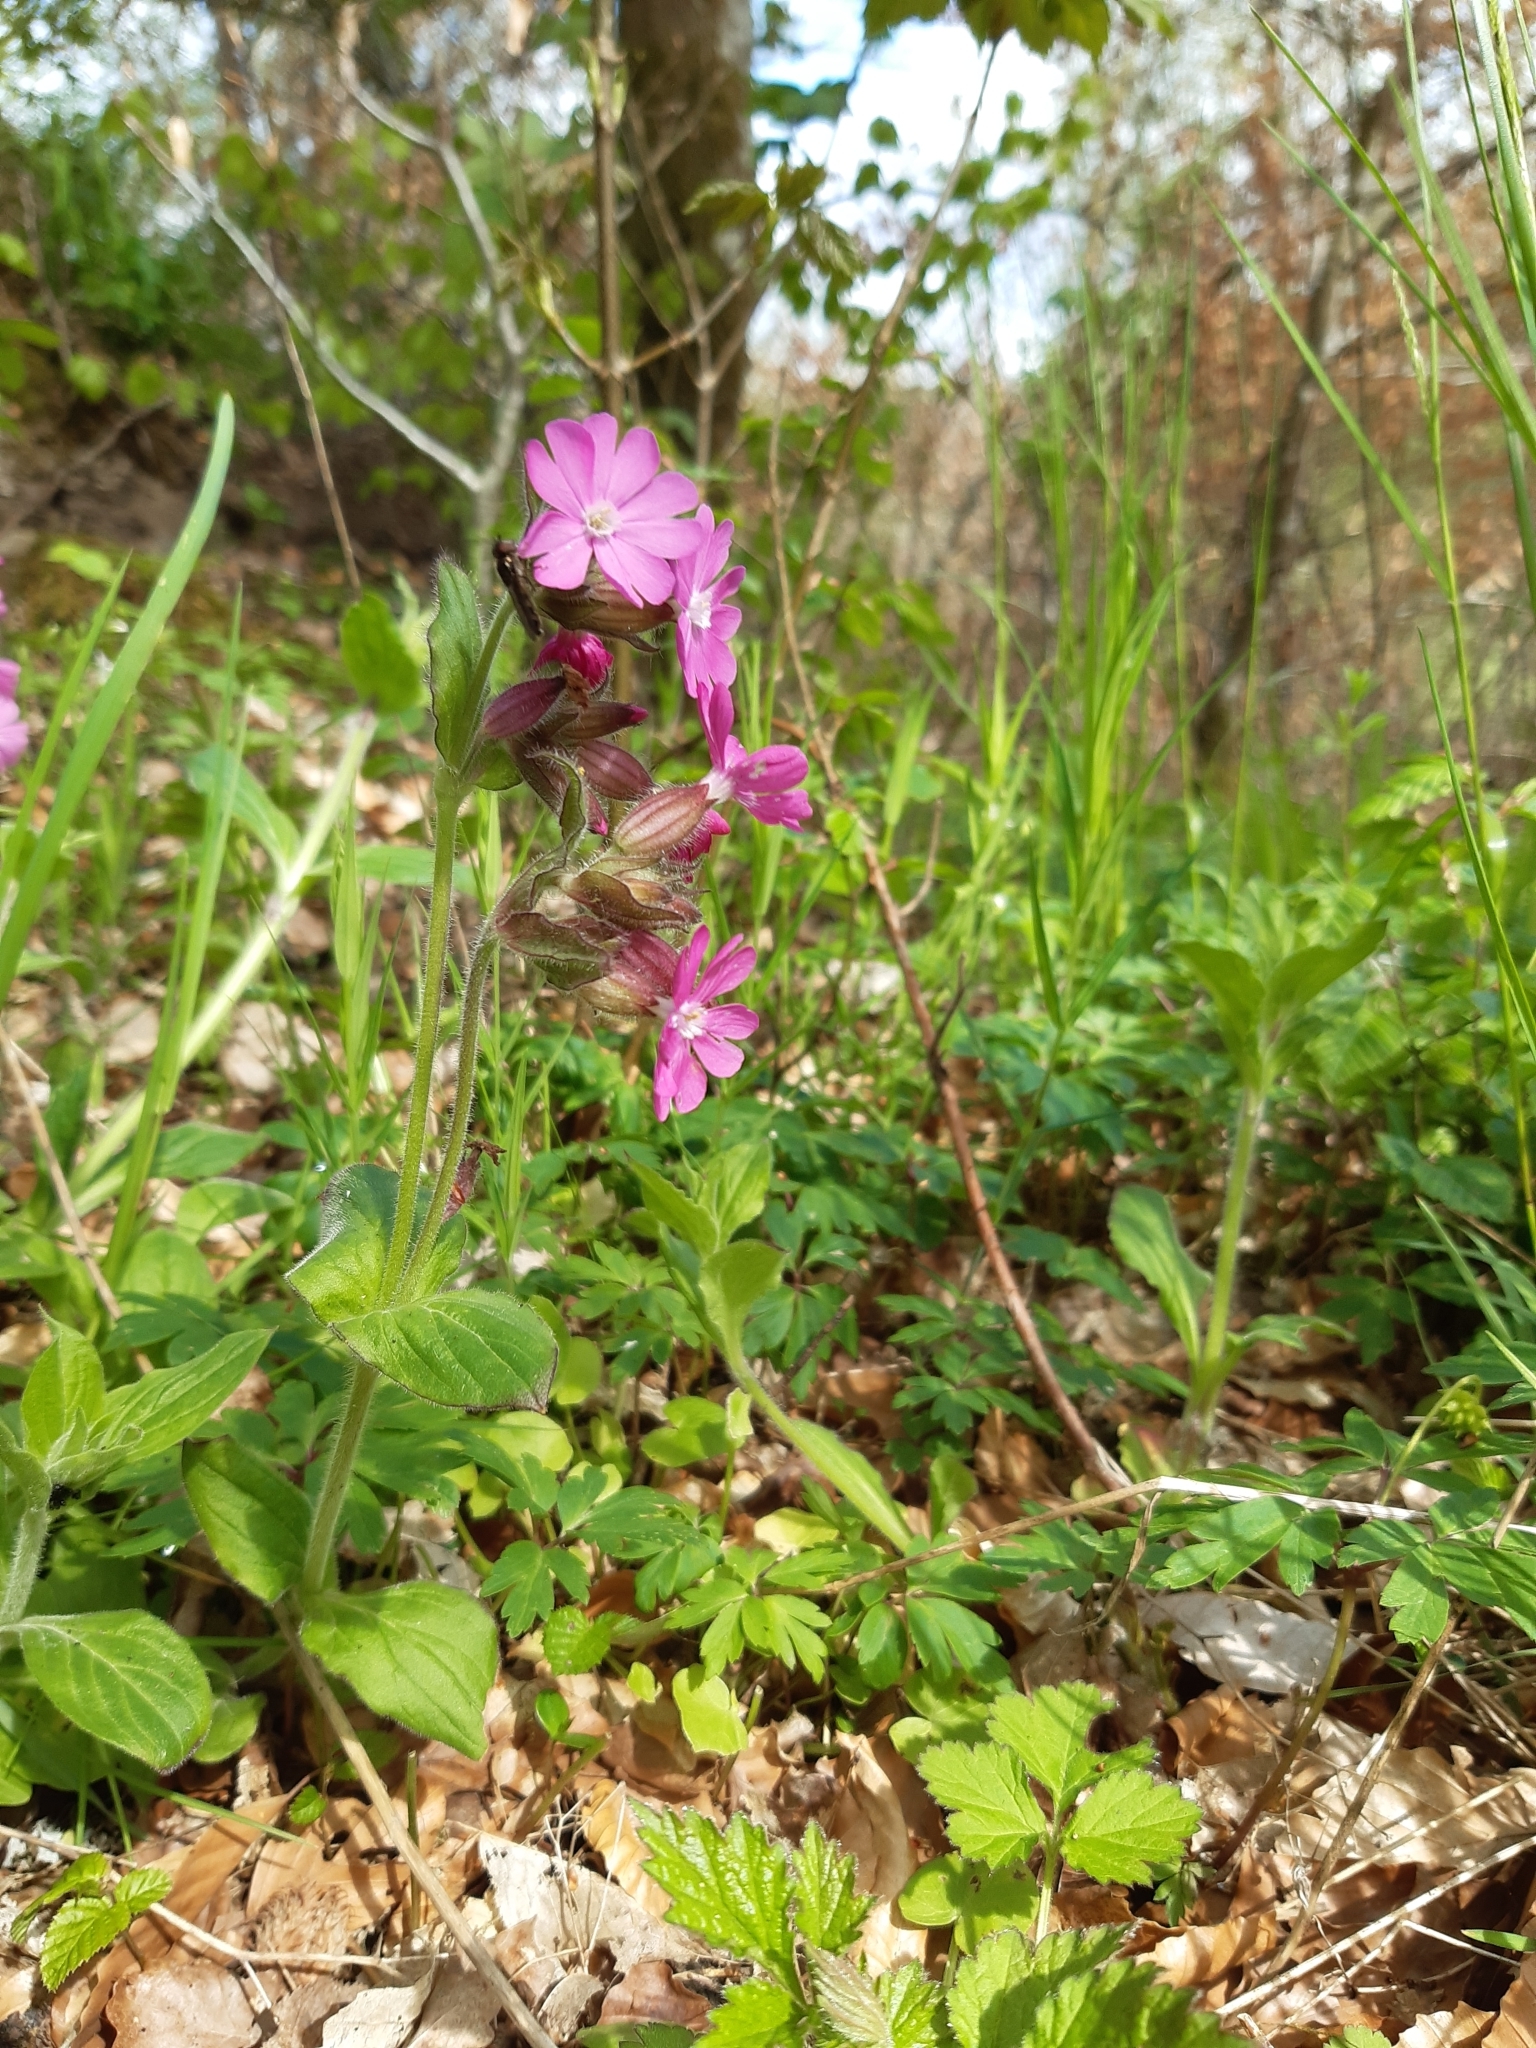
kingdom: Plantae
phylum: Tracheophyta
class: Magnoliopsida
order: Caryophyllales
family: Caryophyllaceae
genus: Silene
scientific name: Silene dioica
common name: Red campion
